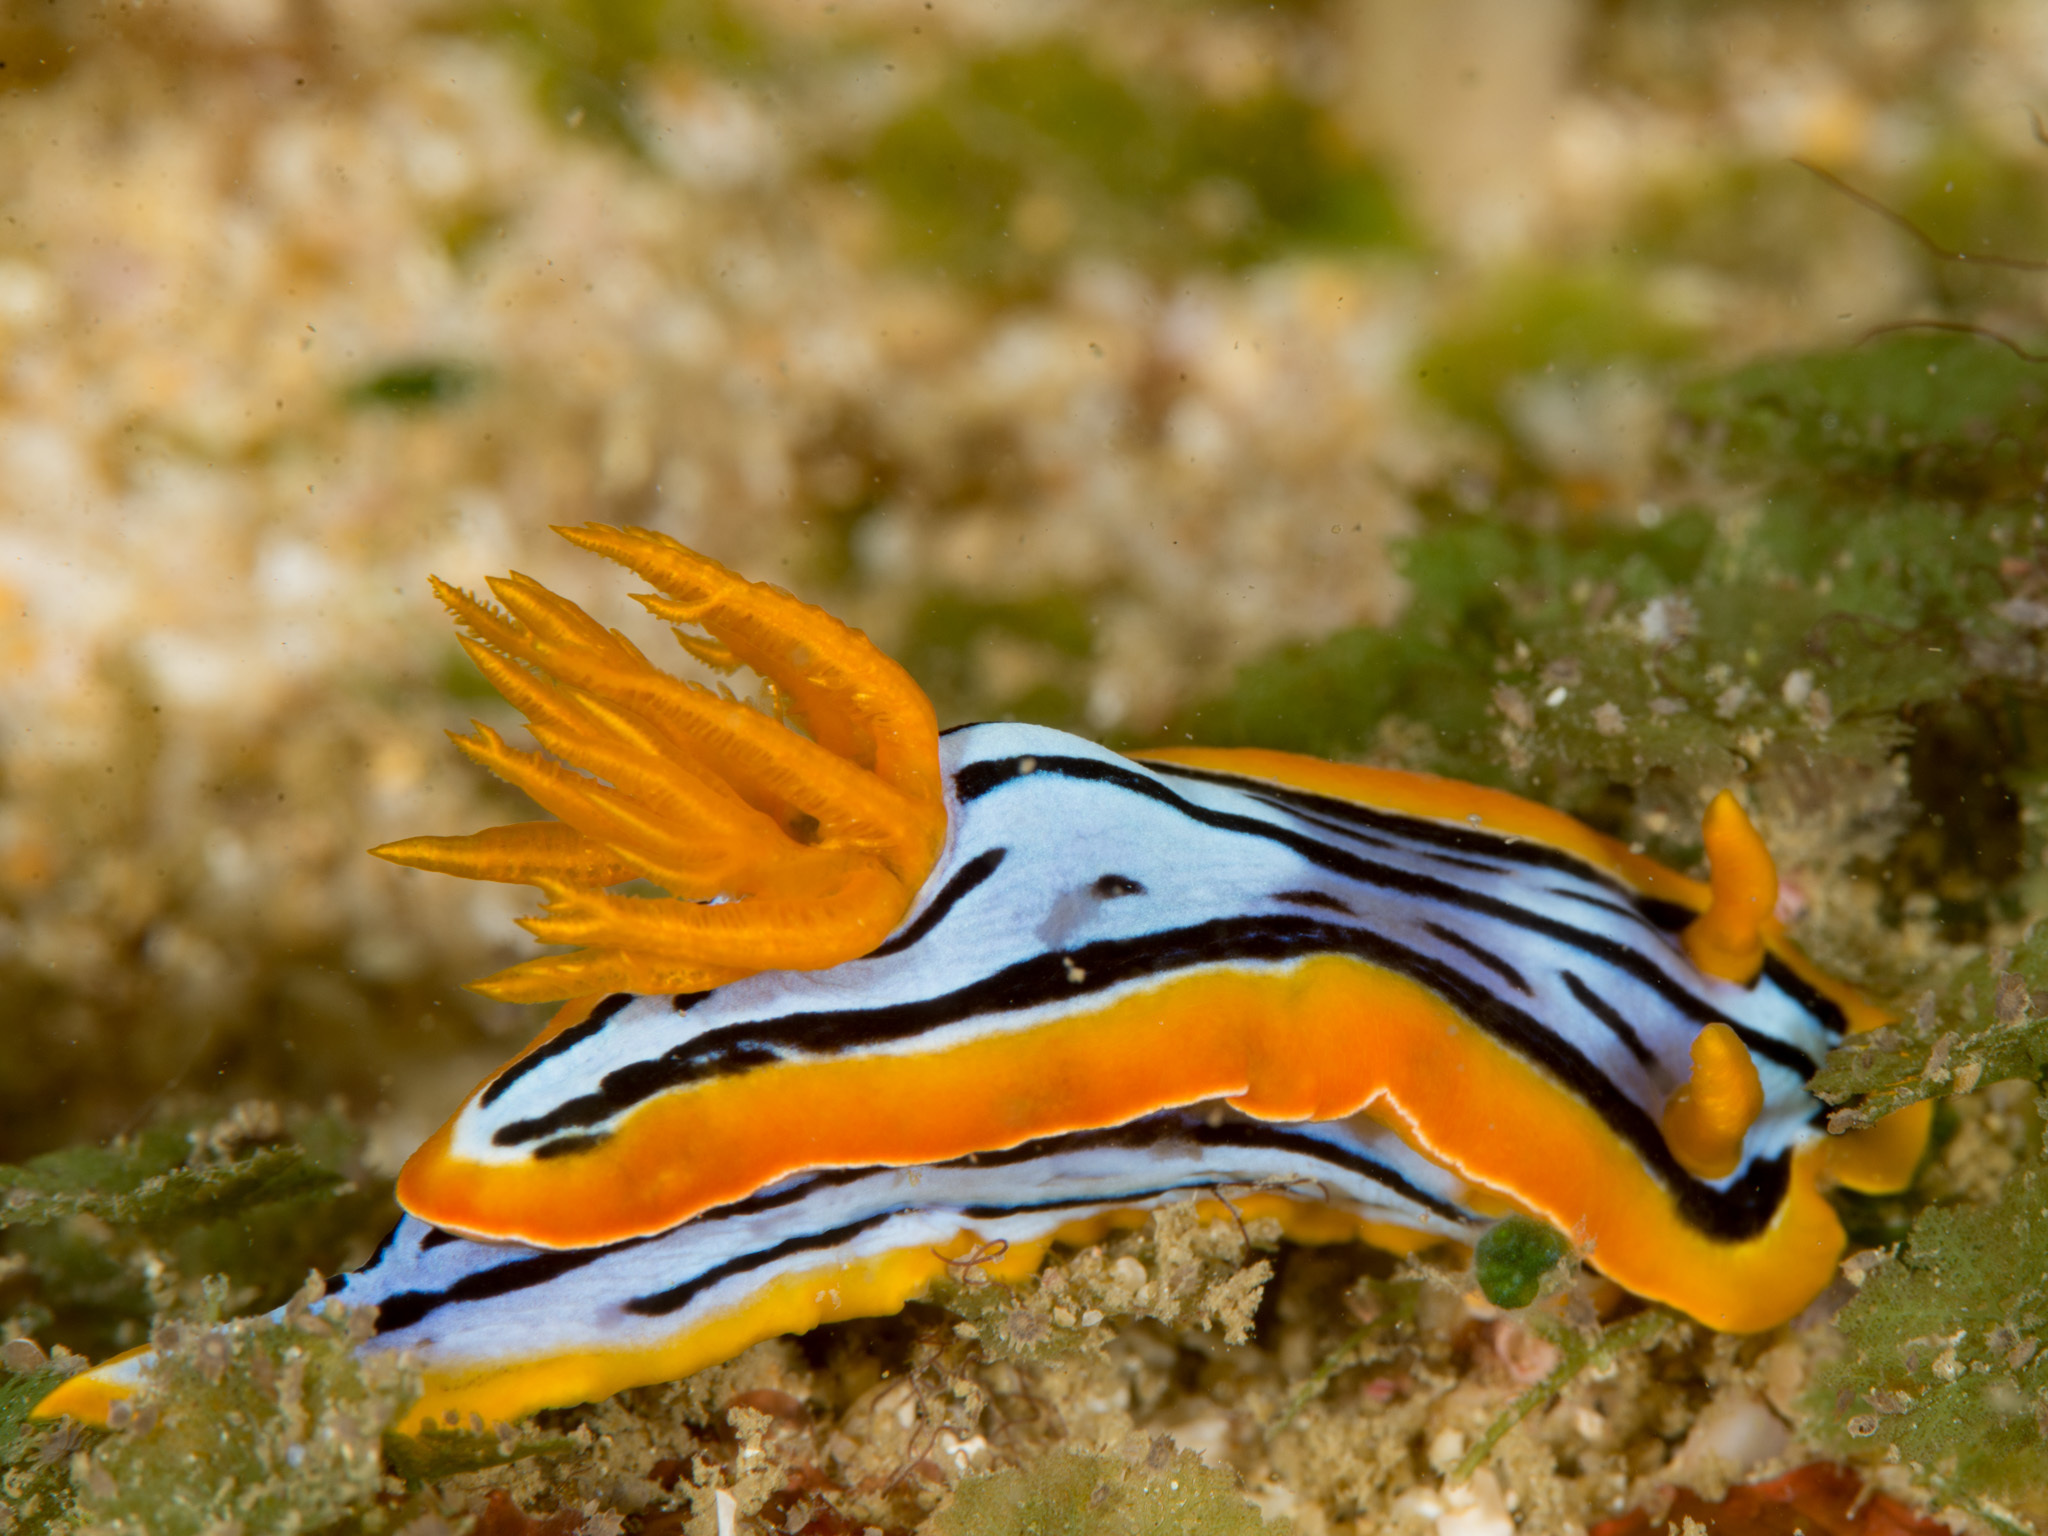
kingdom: Animalia
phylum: Mollusca
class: Gastropoda
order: Nudibranchia
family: Chromodorididae
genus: Chromodoris
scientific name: Chromodoris elisabethina
